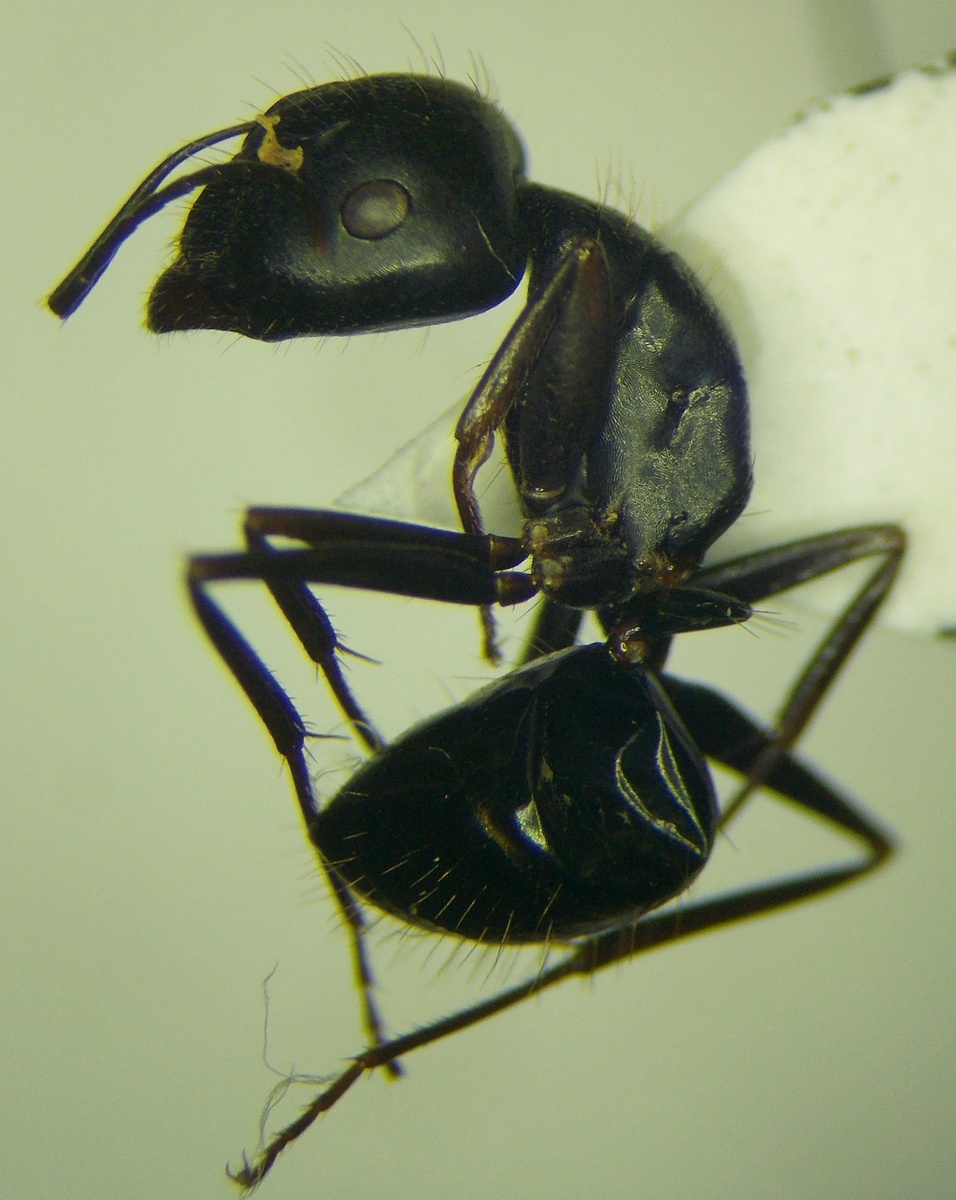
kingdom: Animalia
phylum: Arthropoda
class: Insecta
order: Hymenoptera
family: Formicidae
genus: Camponotus
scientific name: Camponotus aethiops
